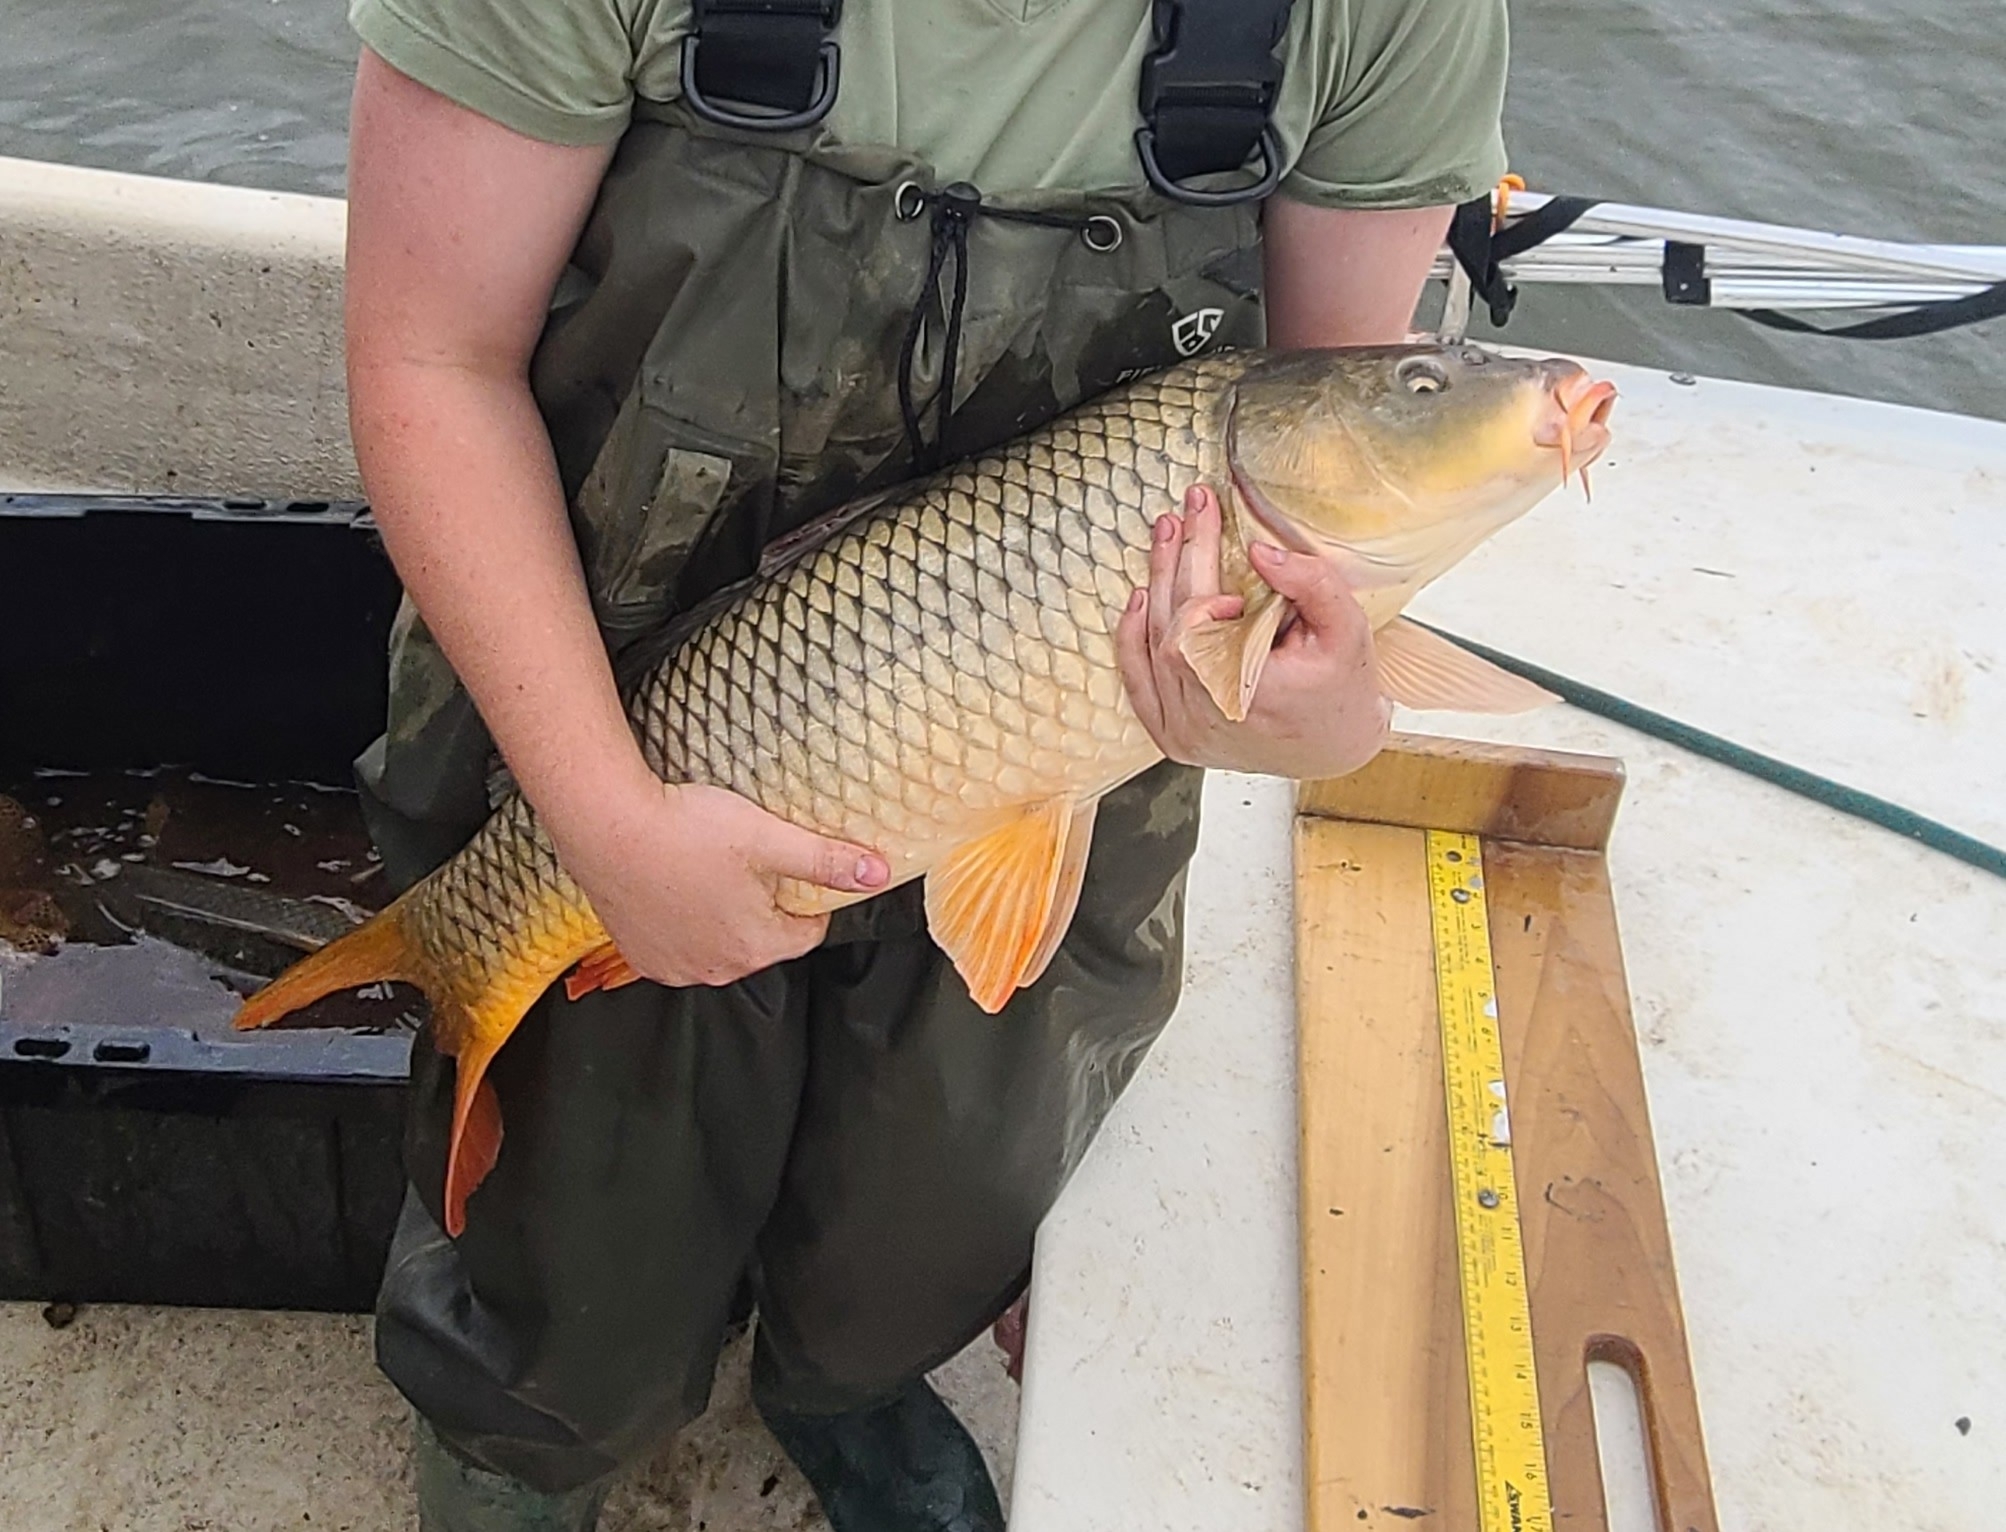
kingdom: Animalia
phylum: Chordata
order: Cypriniformes
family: Cyprinidae
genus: Cyprinus
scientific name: Cyprinus carpio
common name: Common carp
